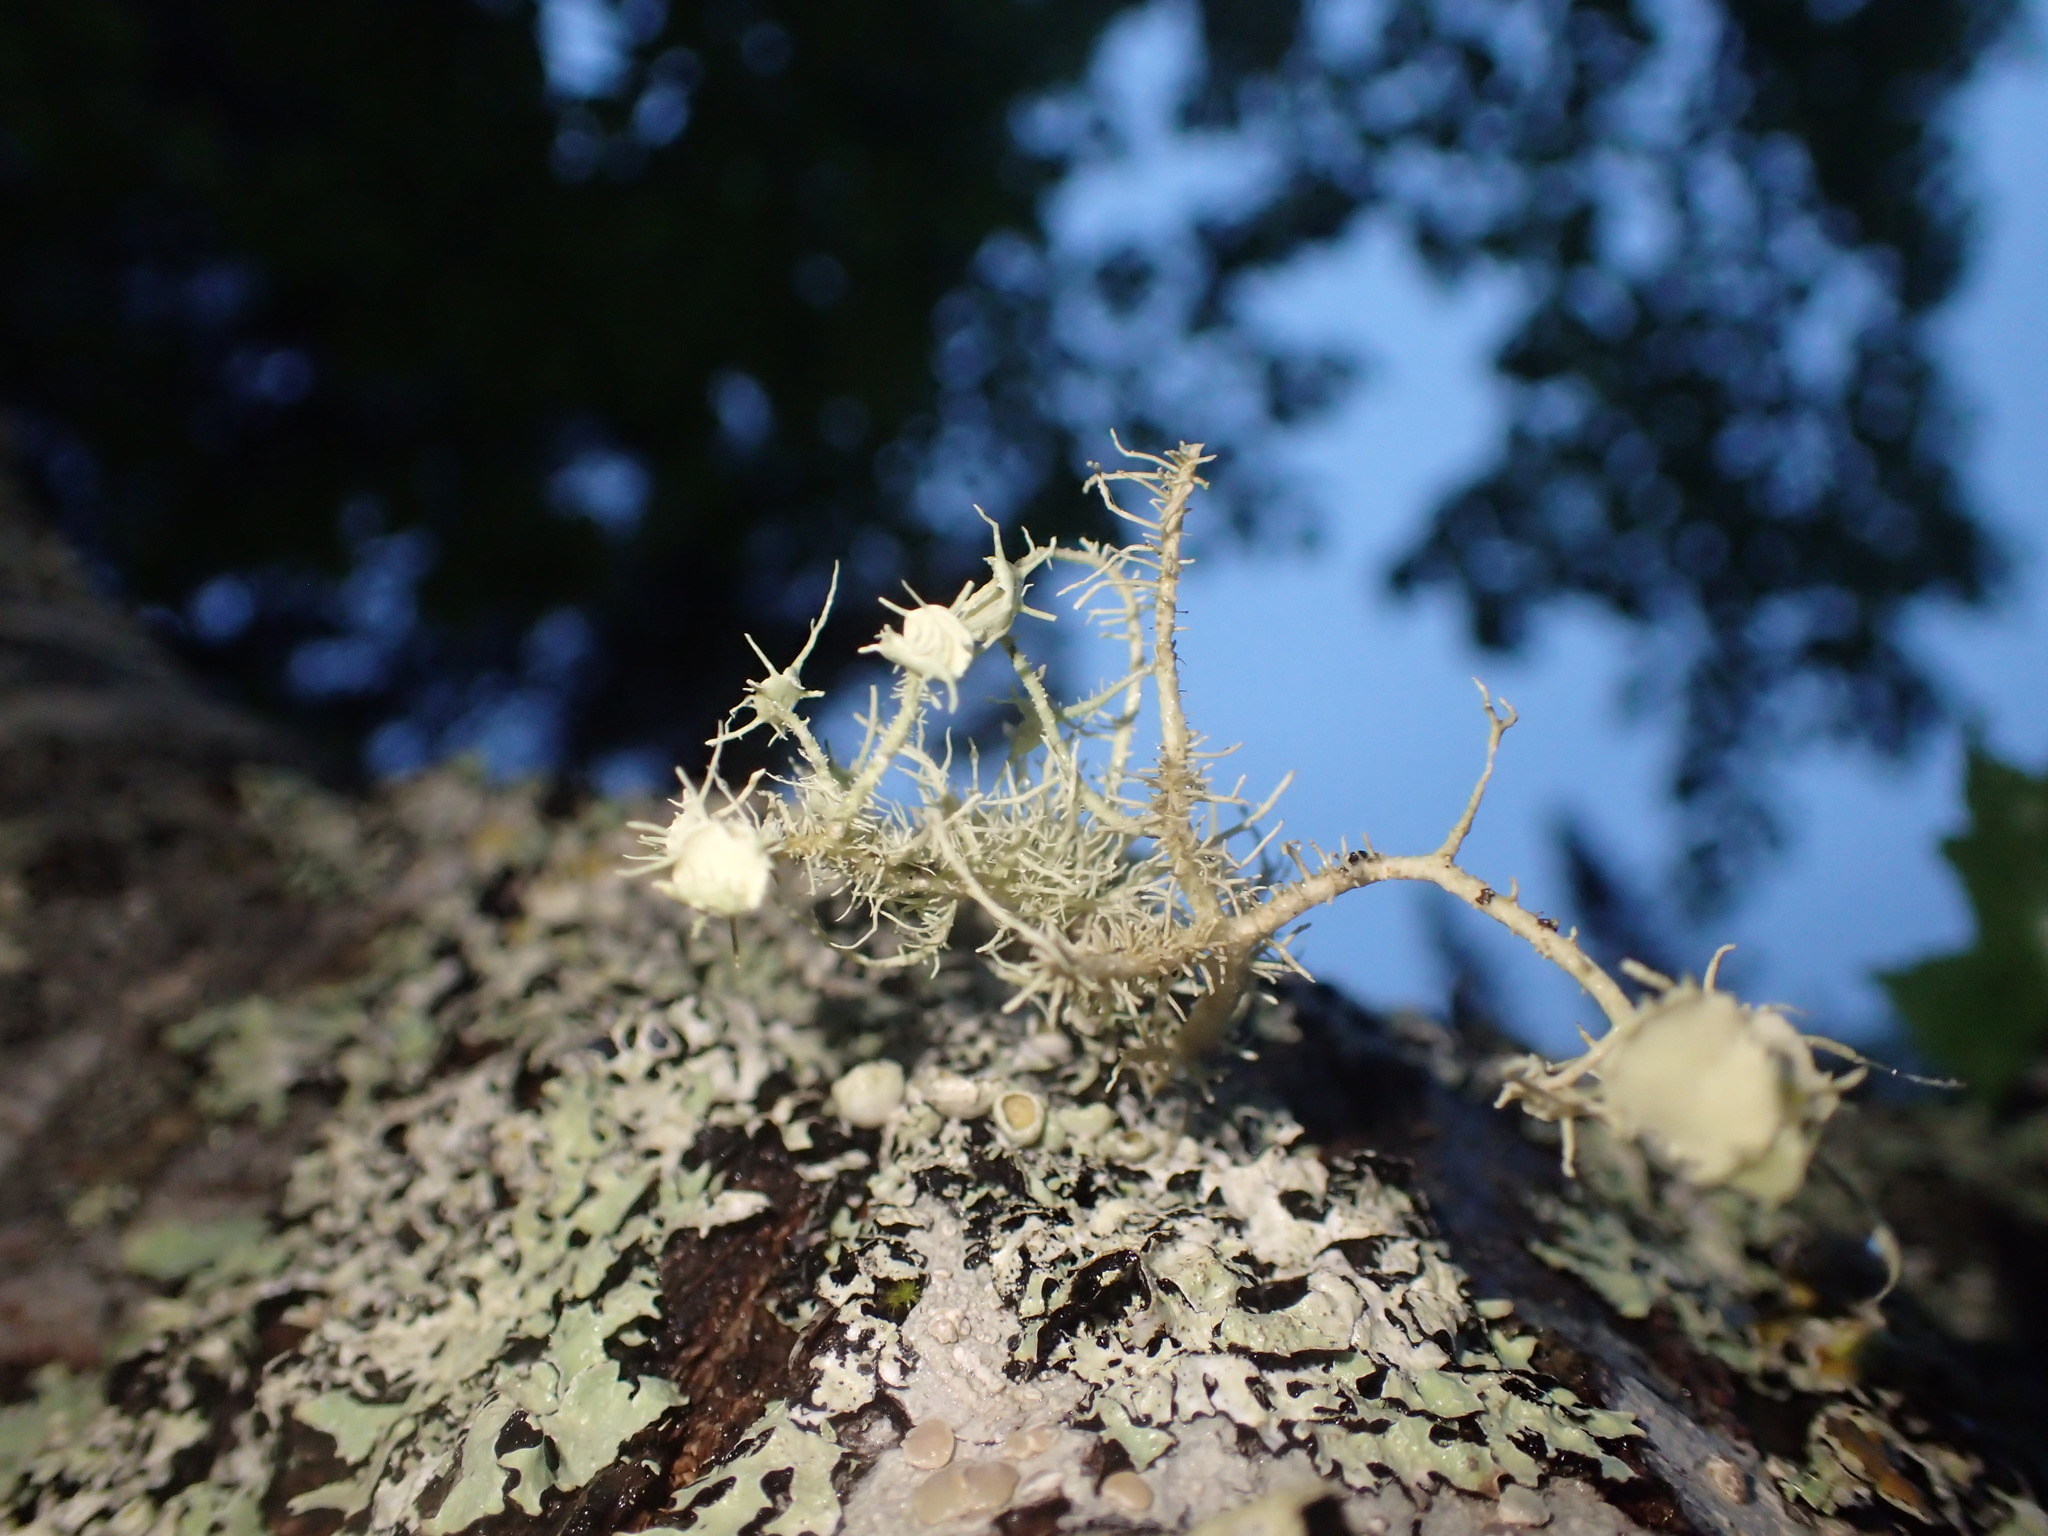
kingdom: Fungi
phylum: Ascomycota
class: Lecanoromycetes
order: Lecanorales
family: Parmeliaceae
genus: Usnea
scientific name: Usnea strigosa
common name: Bushy beard lichen
